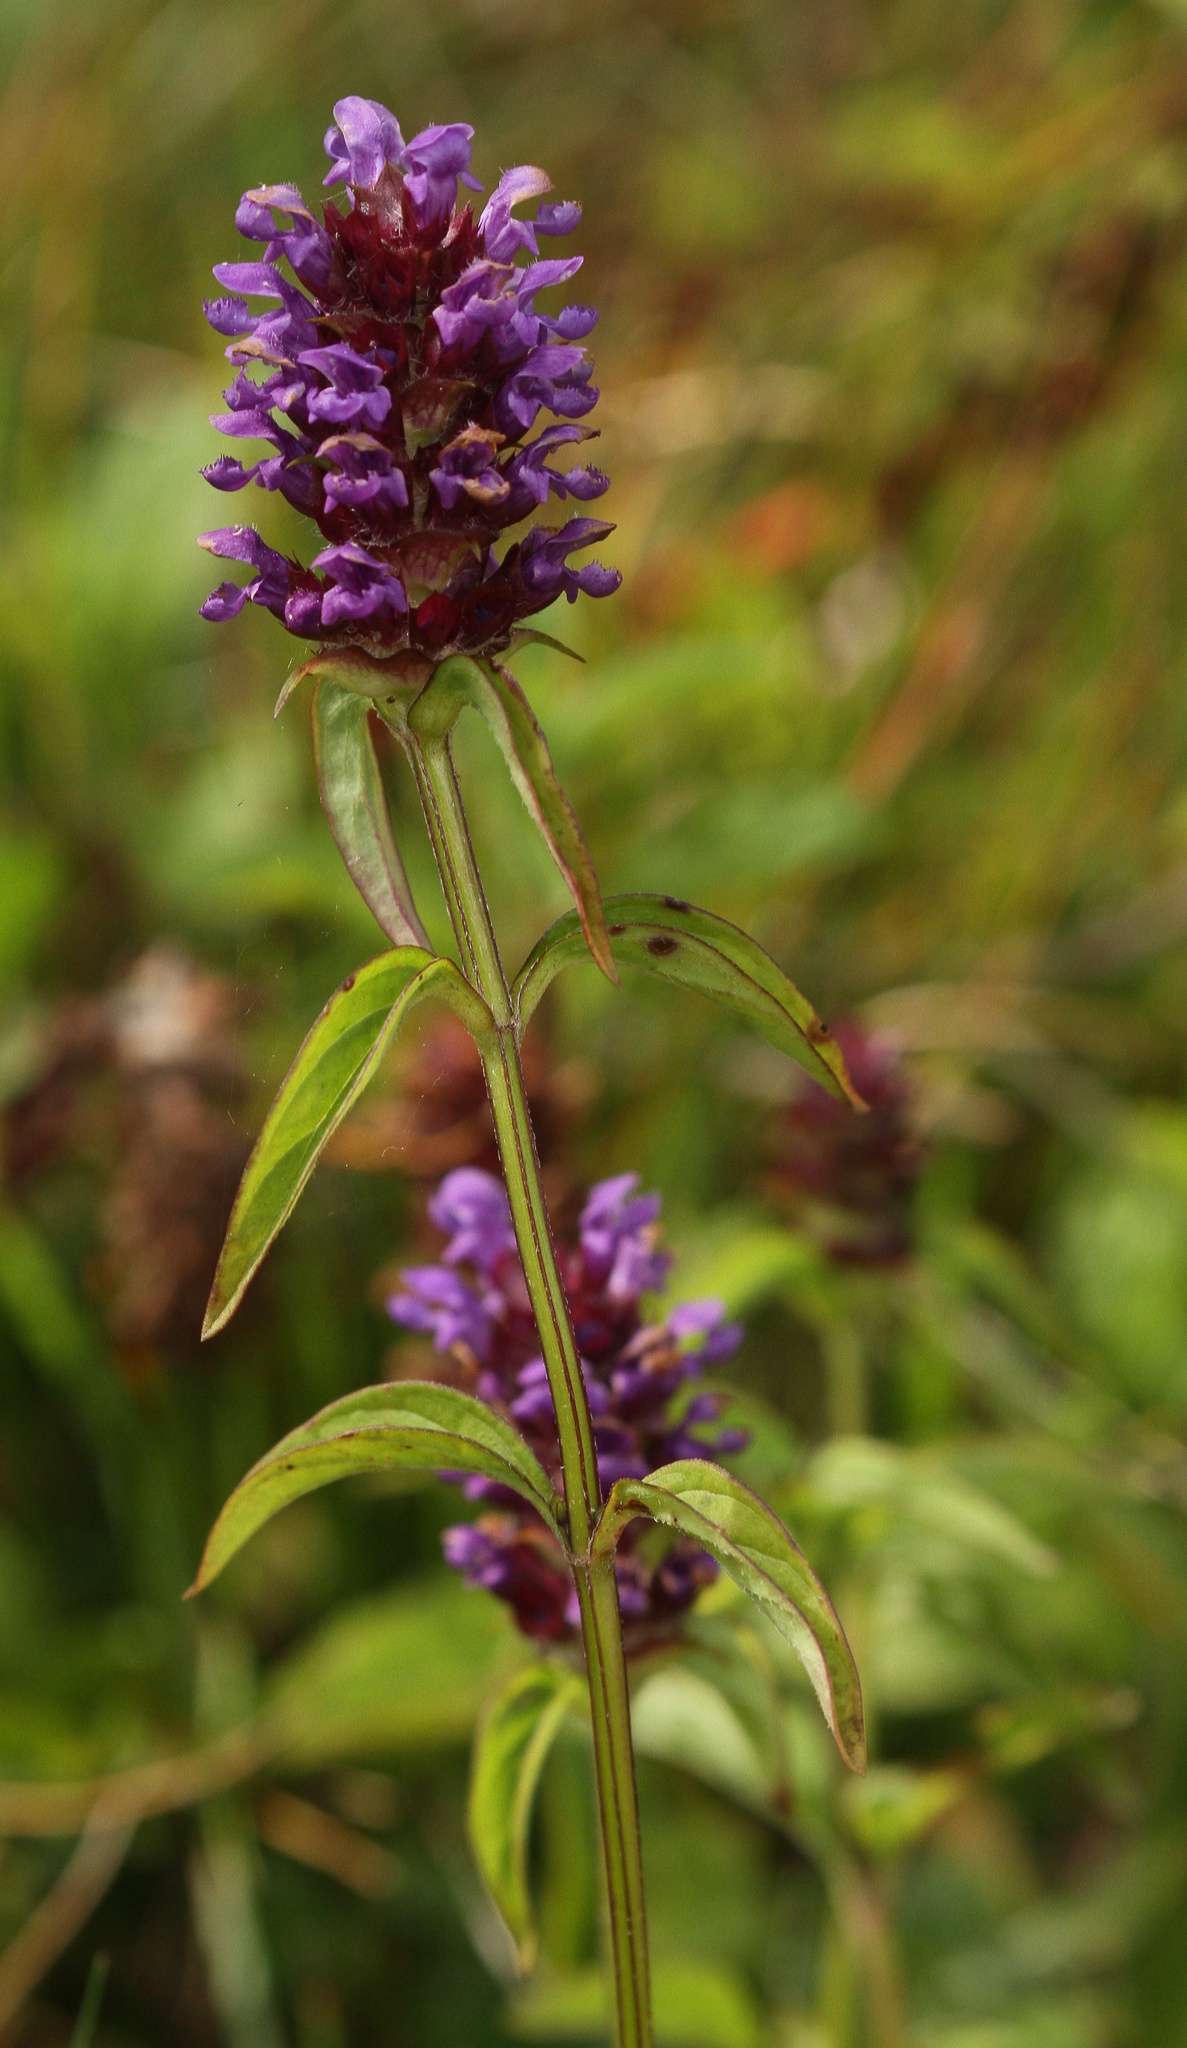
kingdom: Plantae
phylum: Tracheophyta
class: Magnoliopsida
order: Lamiales
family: Lamiaceae
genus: Prunella
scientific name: Prunella vulgaris
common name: Heal-all
